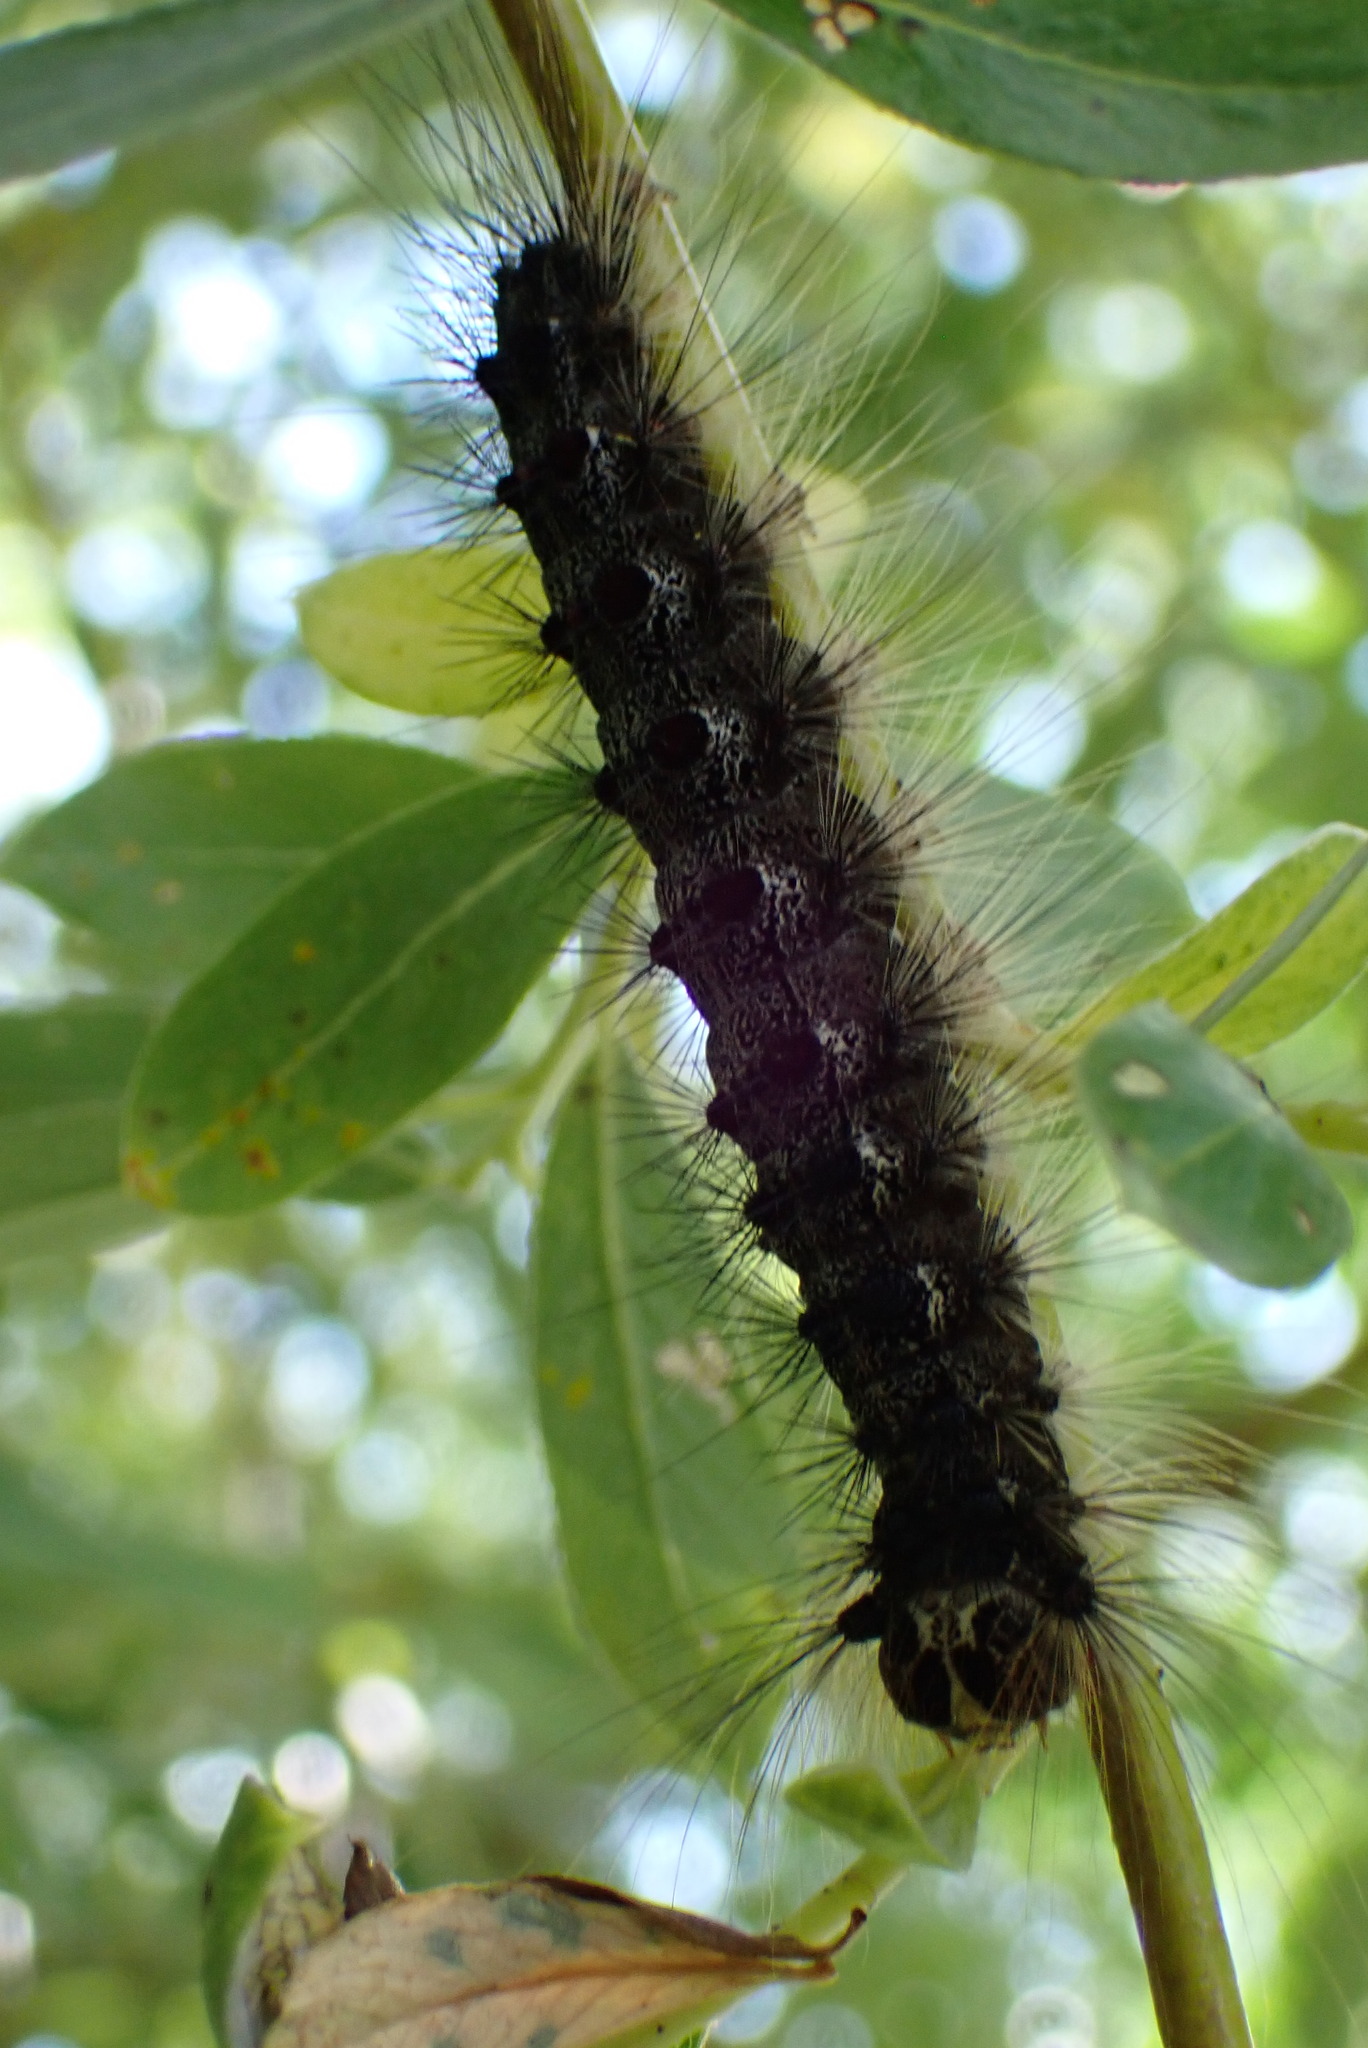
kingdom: Animalia
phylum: Arthropoda
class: Insecta
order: Lepidoptera
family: Erebidae
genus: Lymantria
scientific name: Lymantria dispar
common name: Gypsy moth
